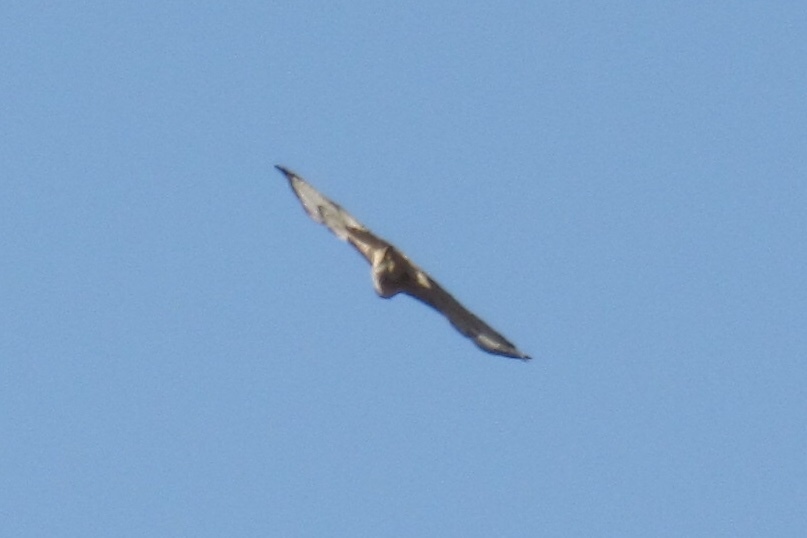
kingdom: Animalia
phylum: Chordata
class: Aves
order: Accipitriformes
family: Accipitridae
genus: Buteo
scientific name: Buteo jamaicensis
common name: Red-tailed hawk
